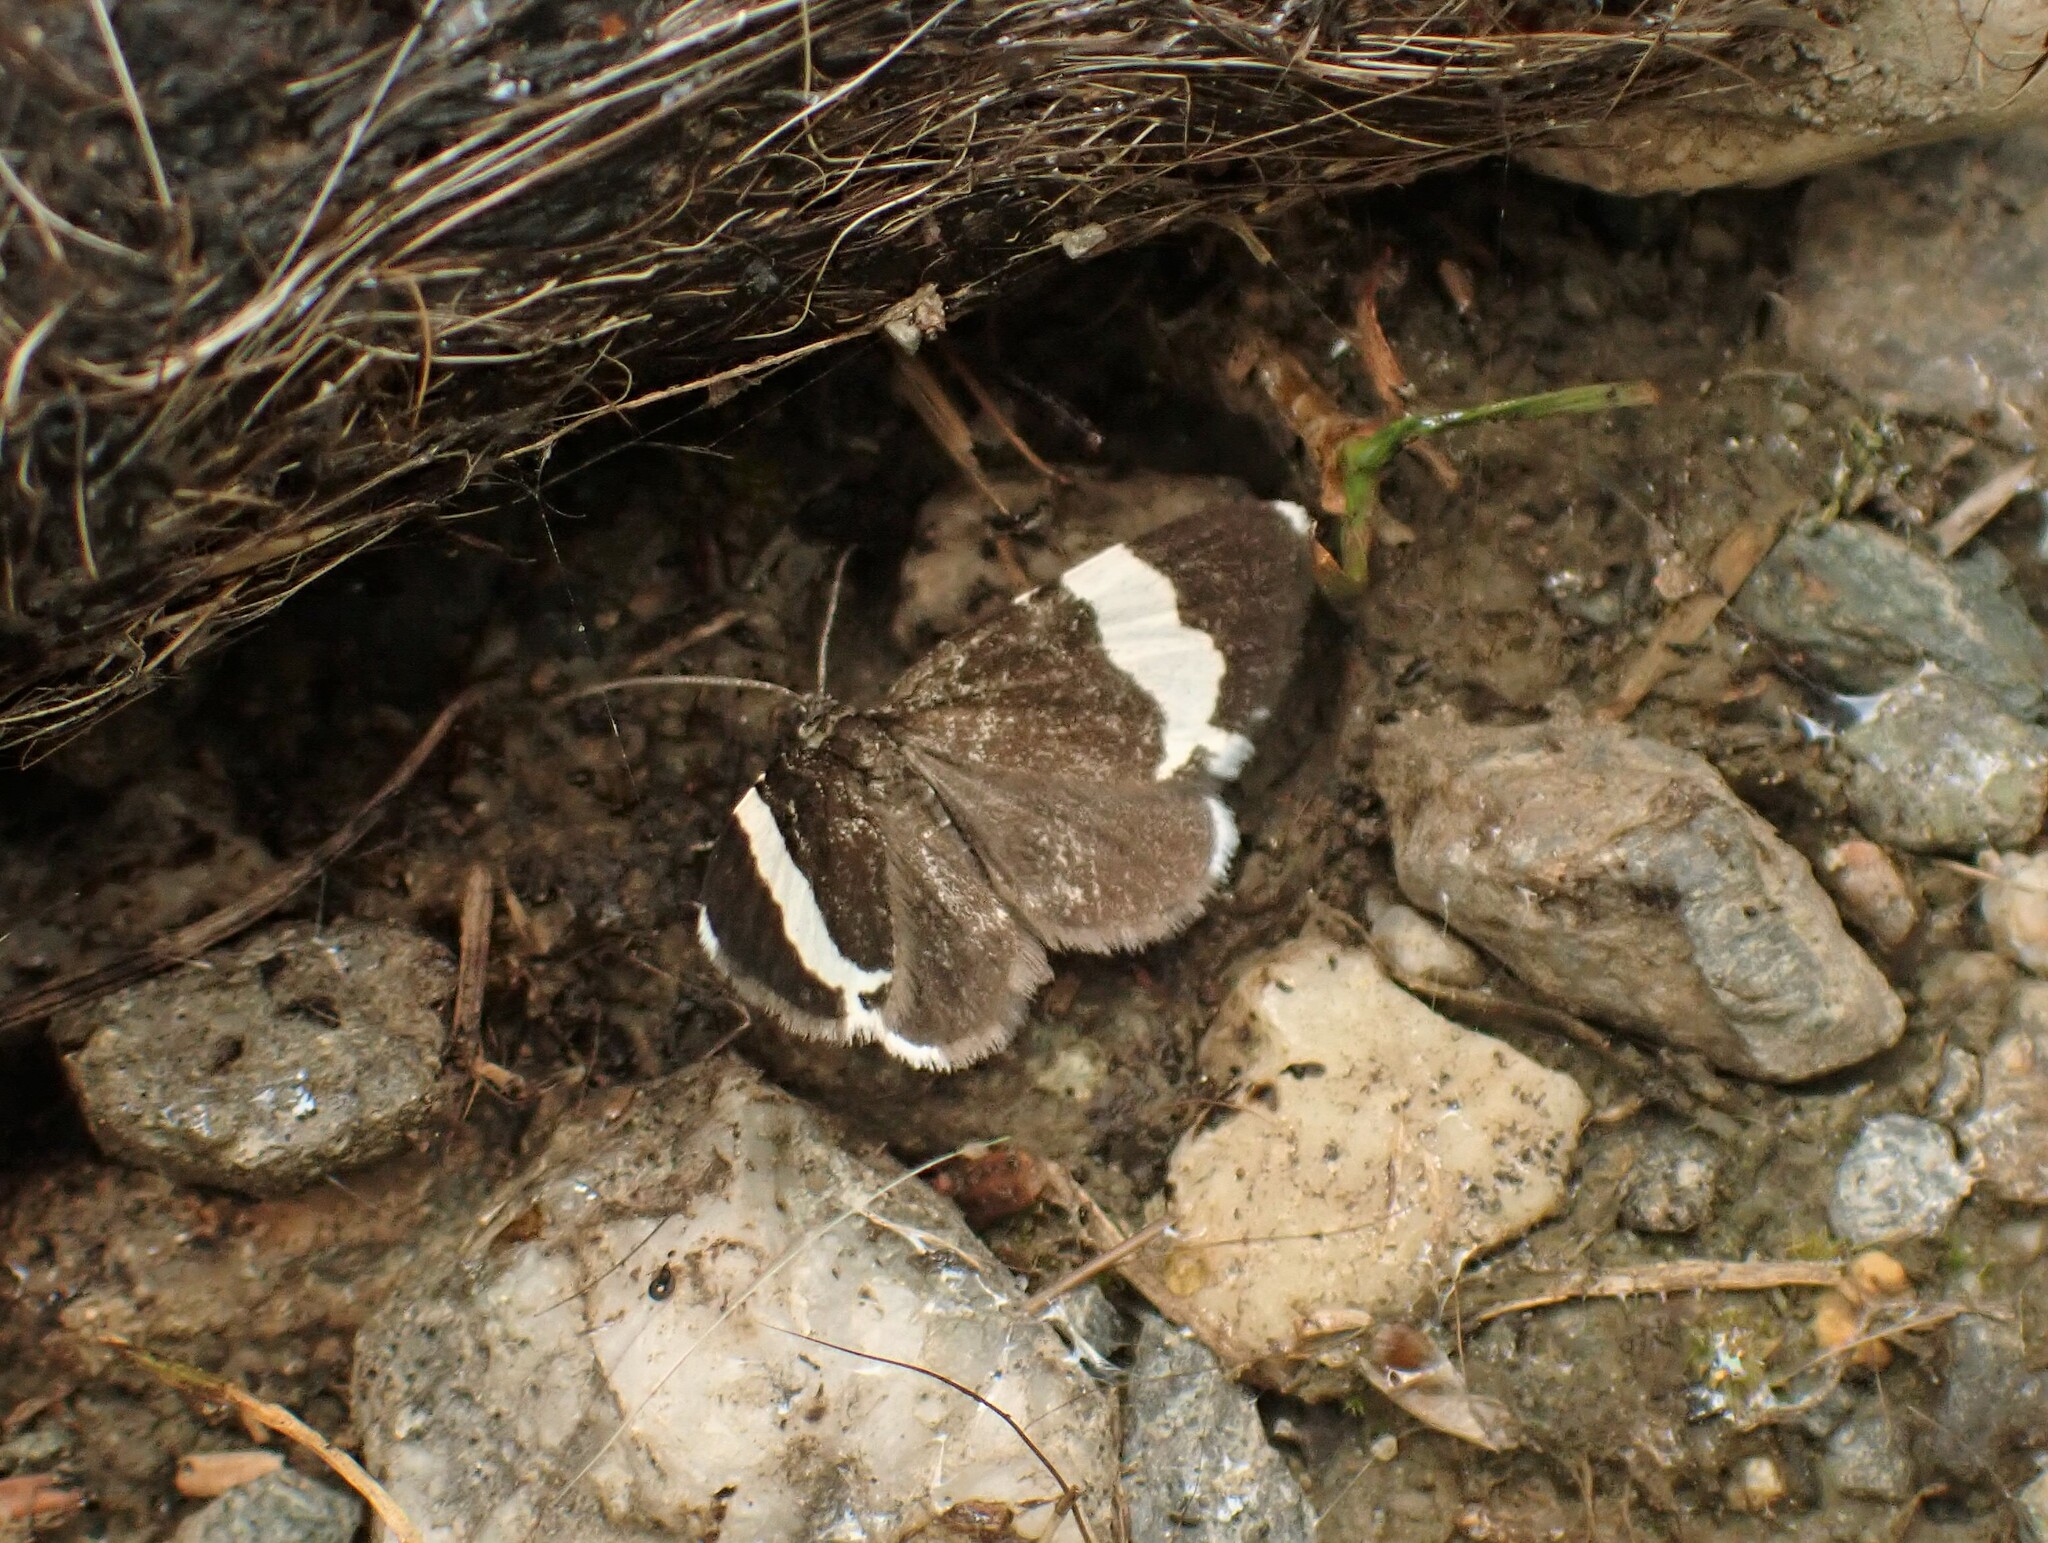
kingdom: Animalia
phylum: Arthropoda
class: Insecta
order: Lepidoptera
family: Geometridae
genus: Trichodezia
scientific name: Trichodezia albovittata
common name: White striped black
